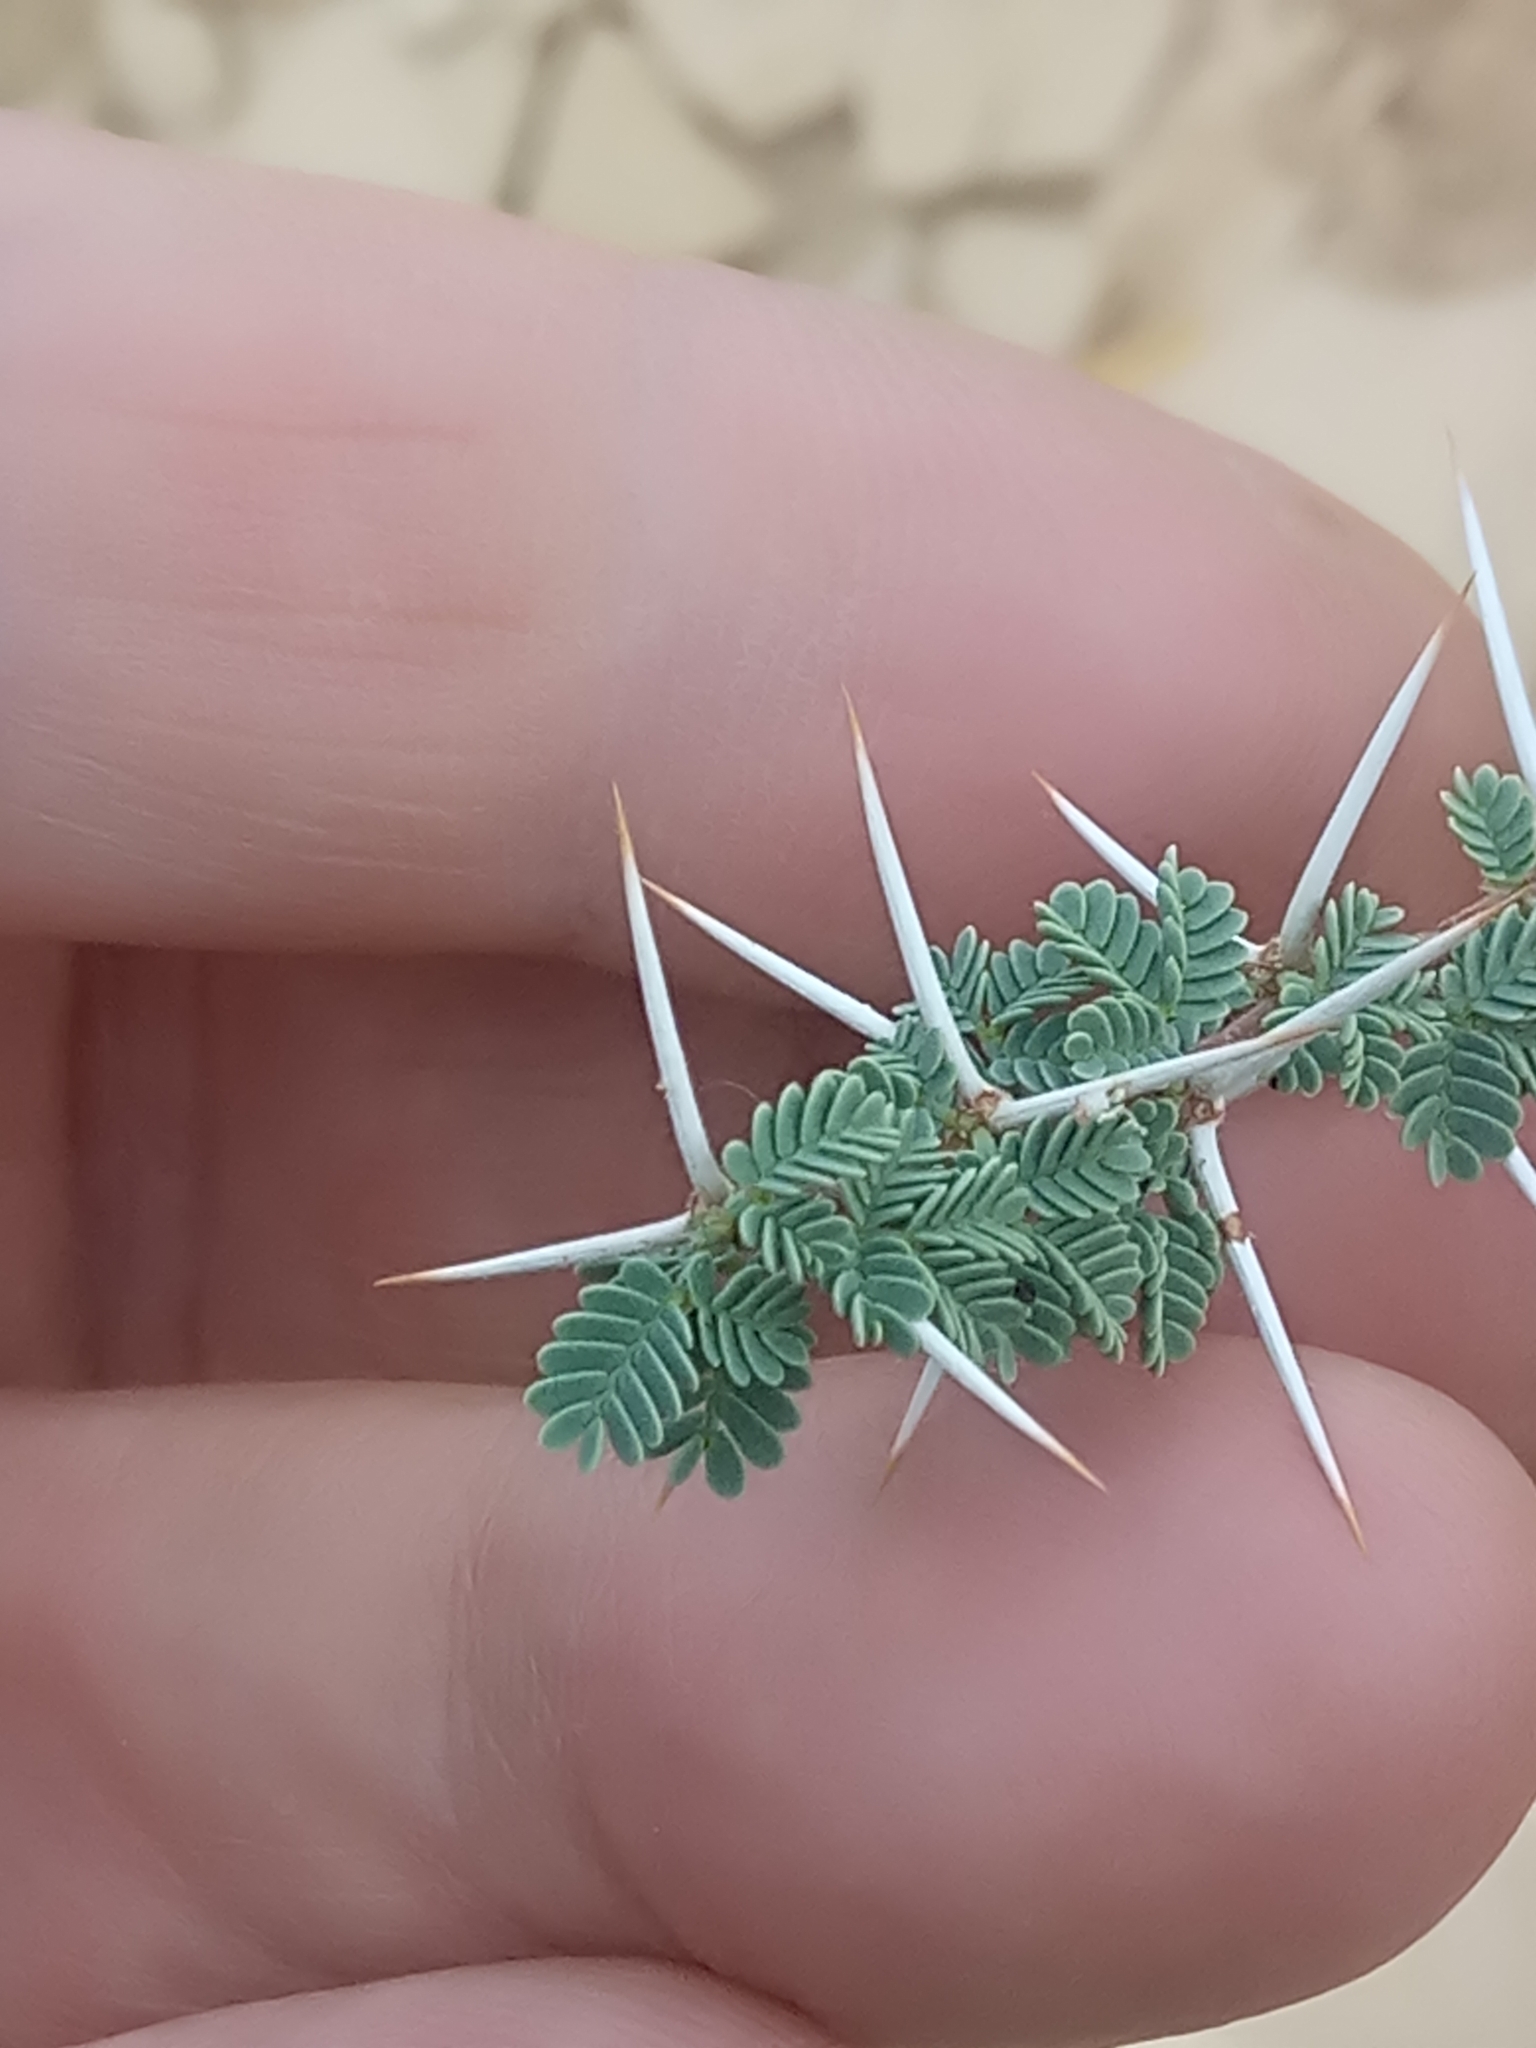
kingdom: Plantae
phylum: Tracheophyta
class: Magnoliopsida
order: Fabales
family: Fabaceae
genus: Vachellia
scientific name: Vachellia tortilis
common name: Umbrella thorn acacia
